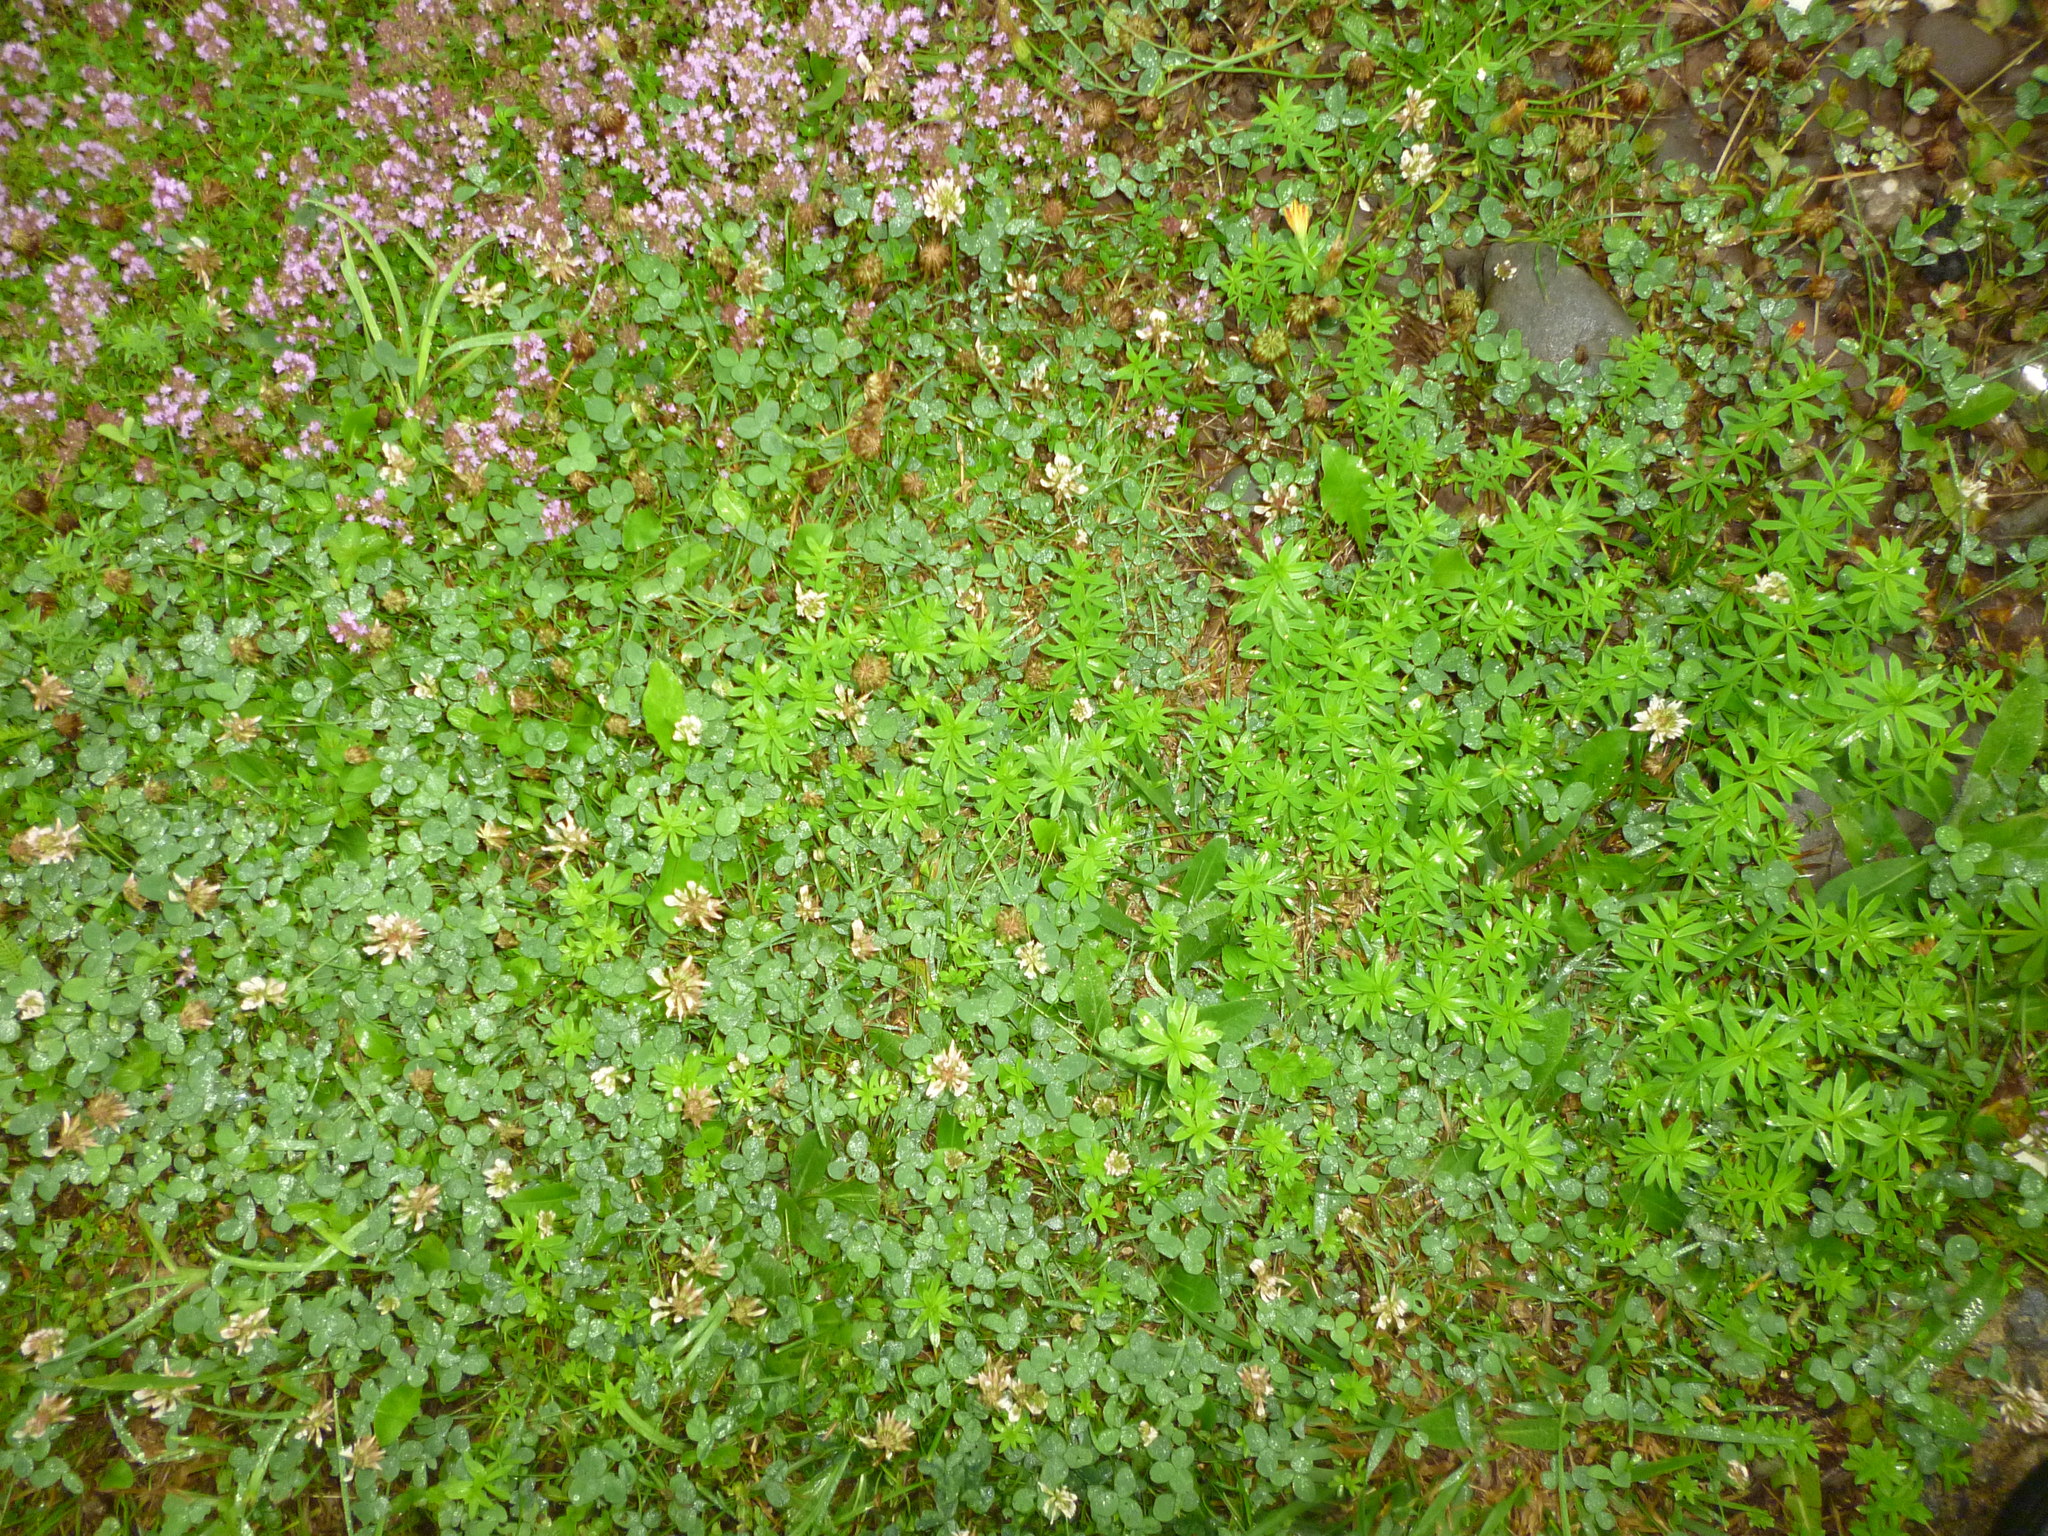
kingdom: Plantae
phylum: Tracheophyta
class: Magnoliopsida
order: Fabales
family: Fabaceae
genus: Trifolium
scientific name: Trifolium repens
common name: White clover
